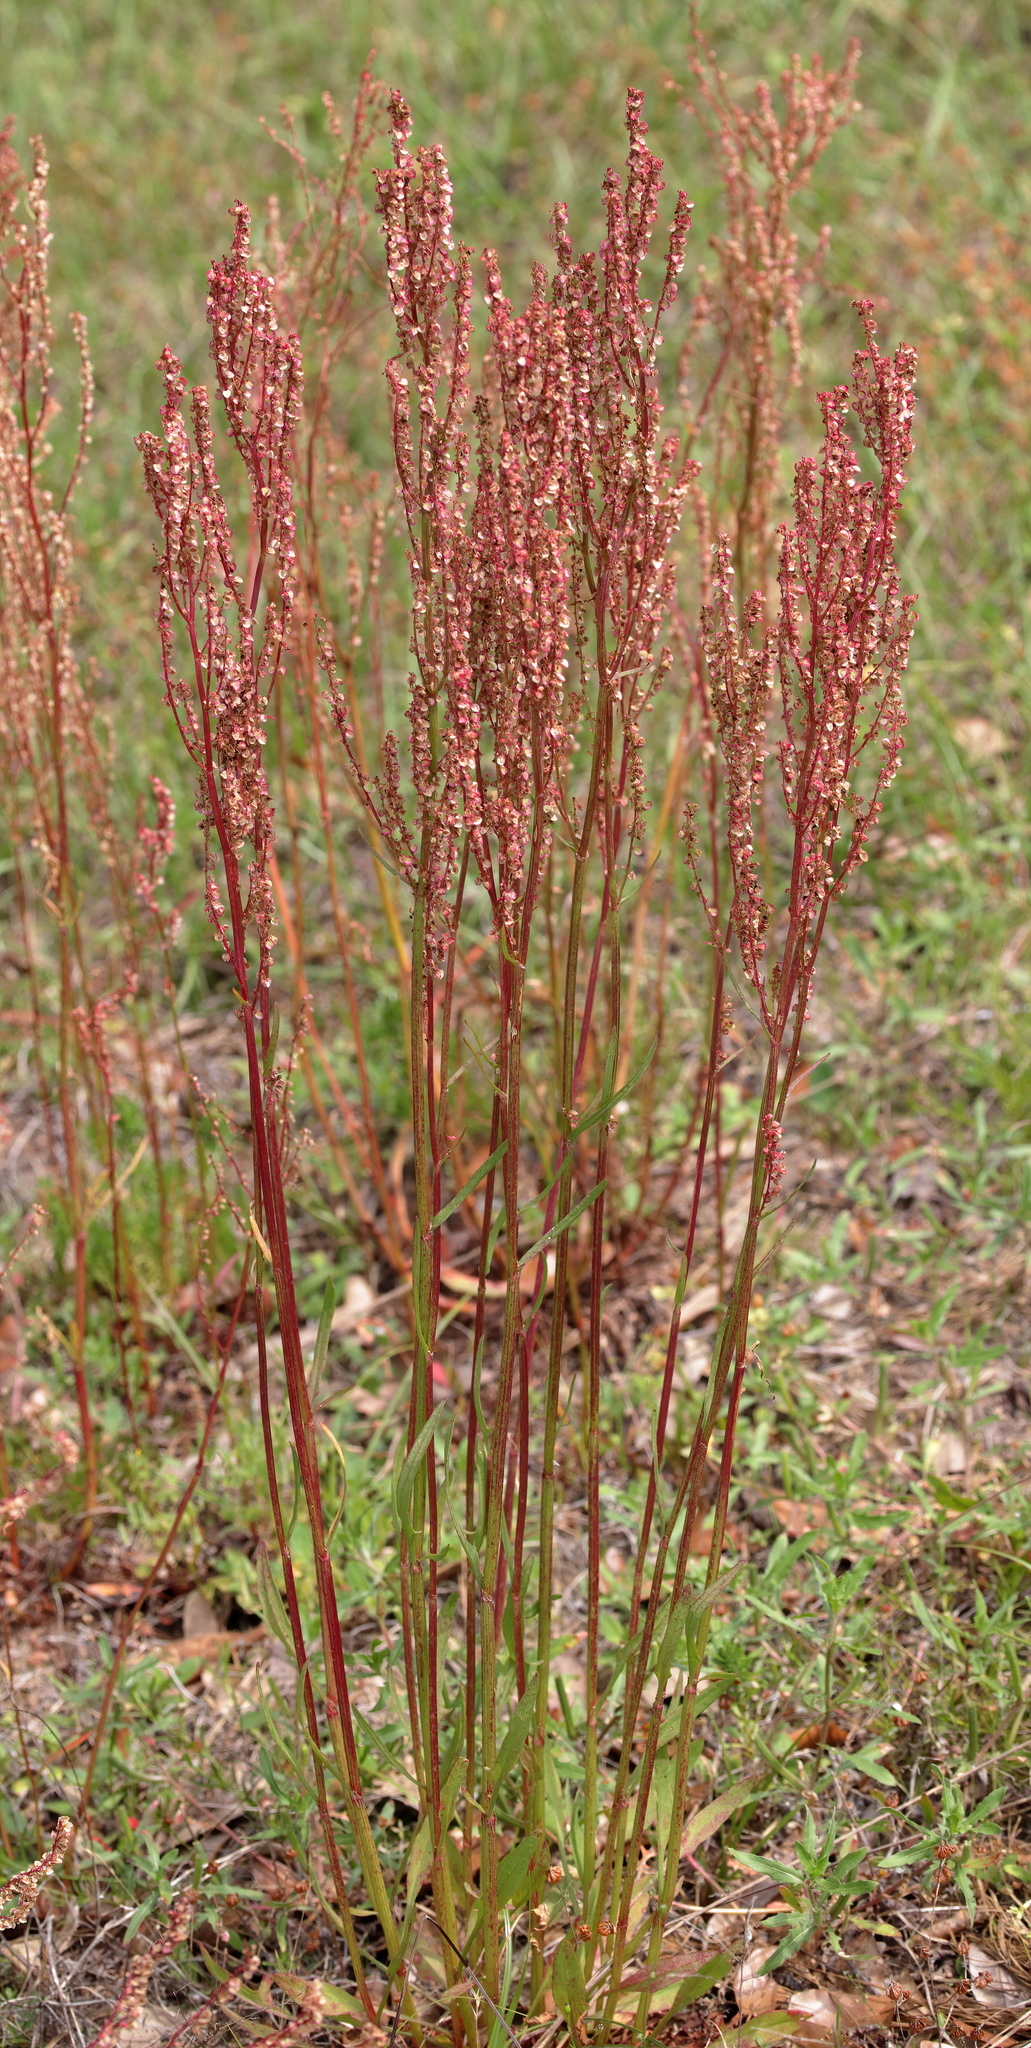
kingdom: Plantae
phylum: Tracheophyta
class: Magnoliopsida
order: Caryophyllales
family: Polygonaceae
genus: Rumex
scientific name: Rumex hastatulus
